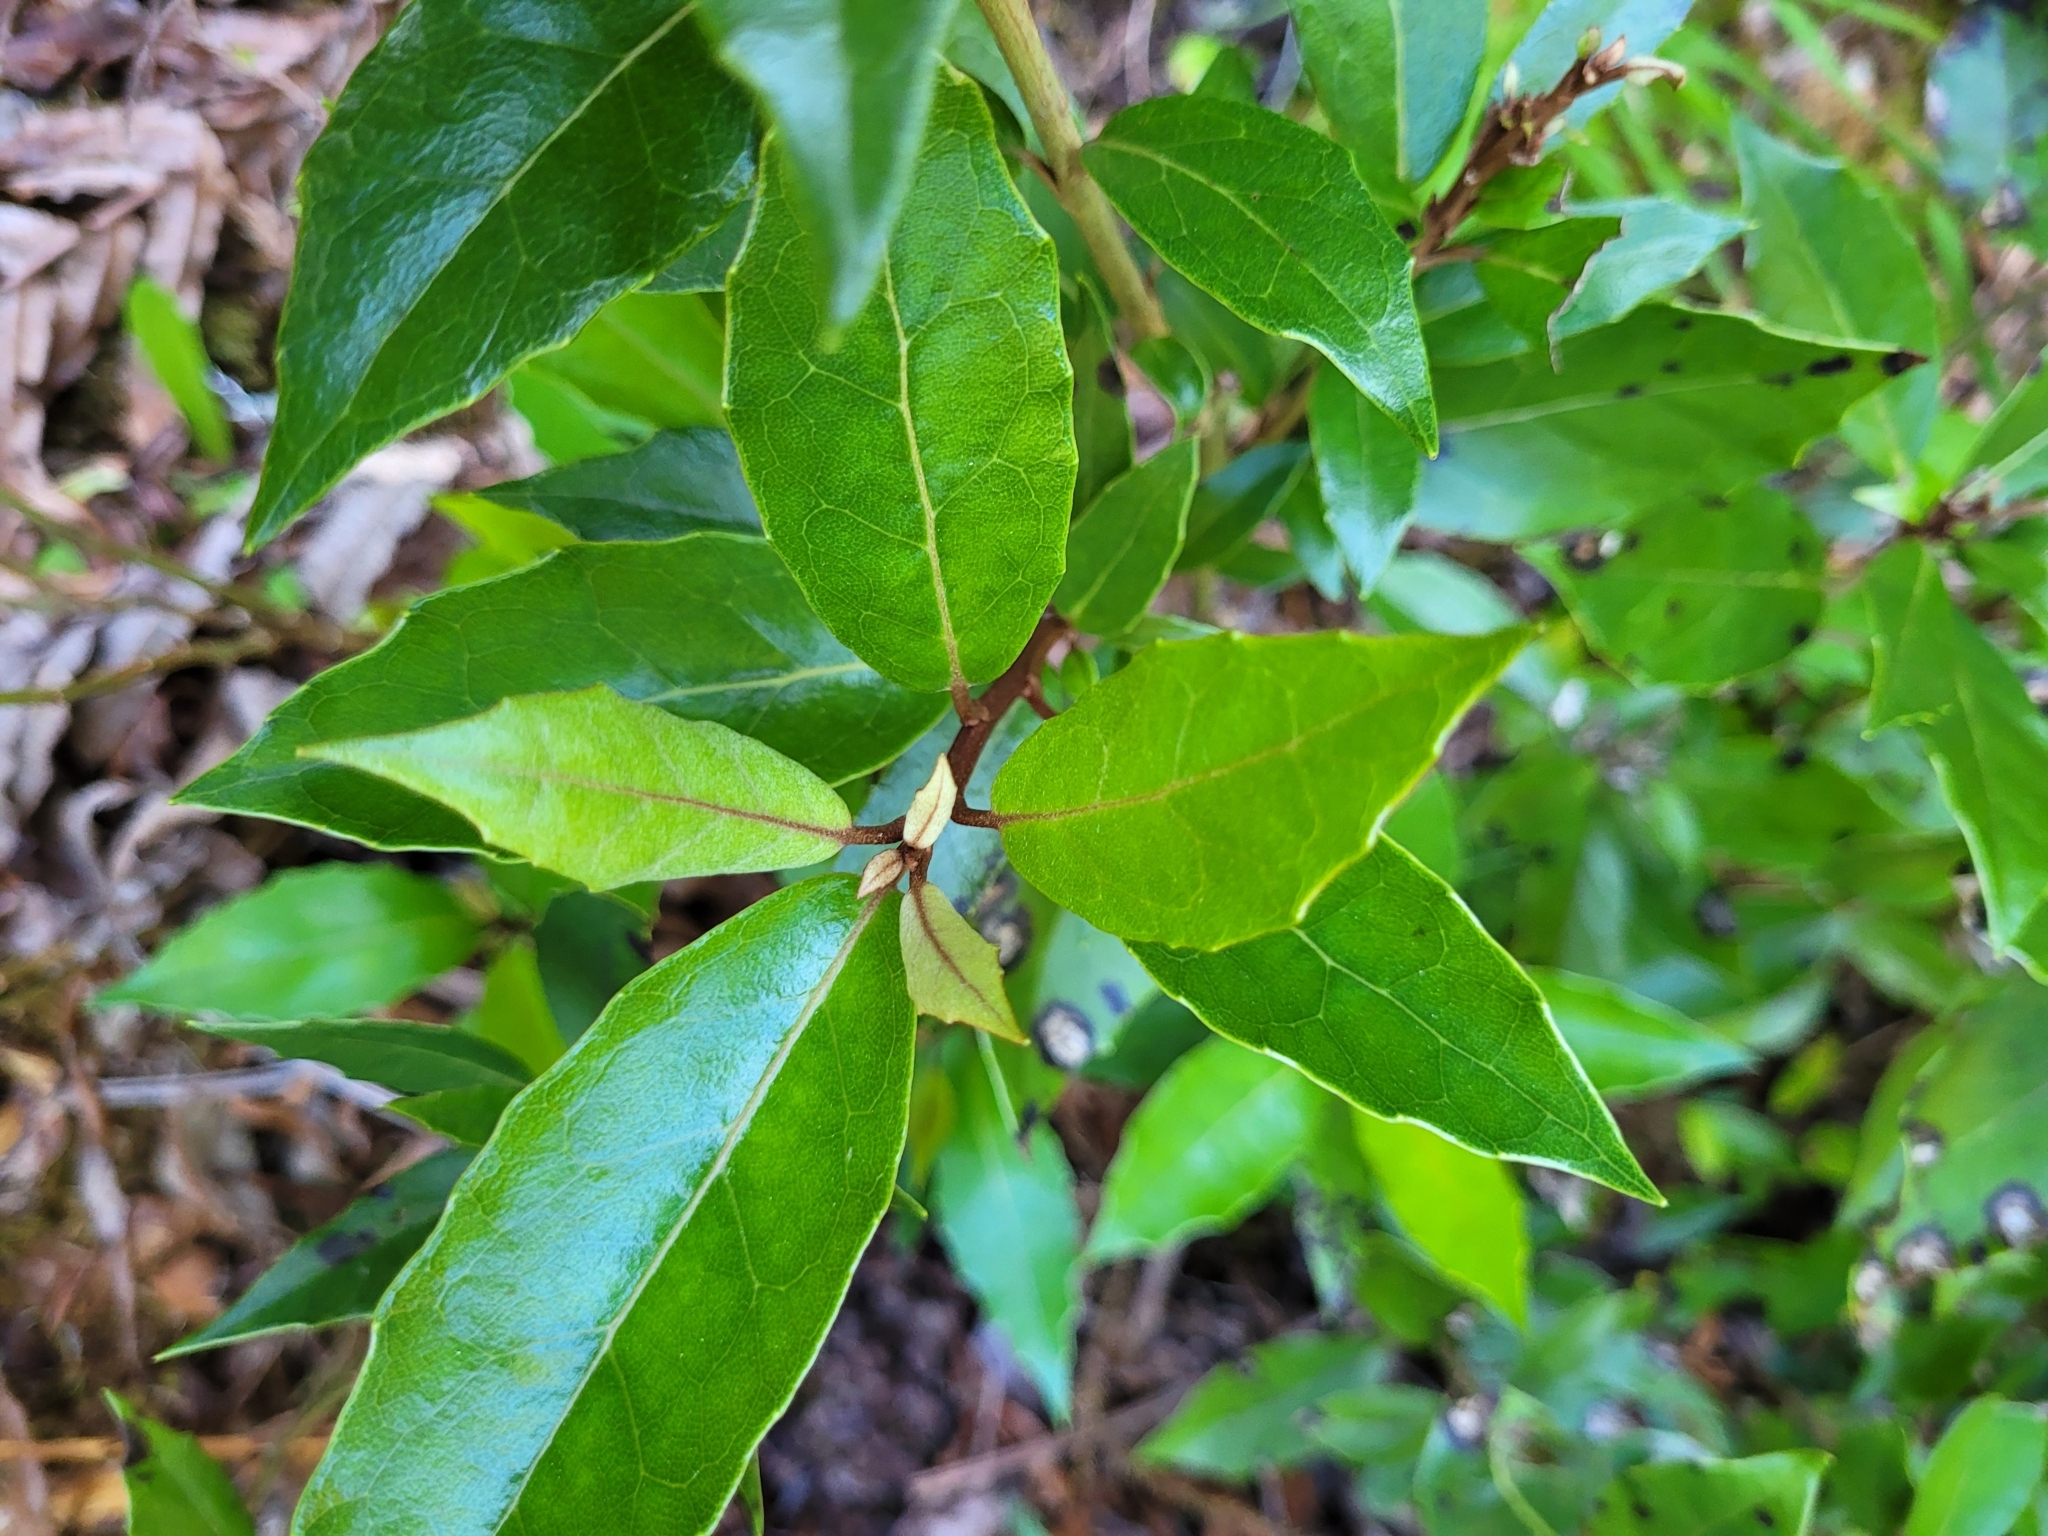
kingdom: Plantae
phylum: Tracheophyta
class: Magnoliopsida
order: Asterales
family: Asteraceae
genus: Olearia
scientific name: Olearia arborescens
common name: Glossy tree daisy
